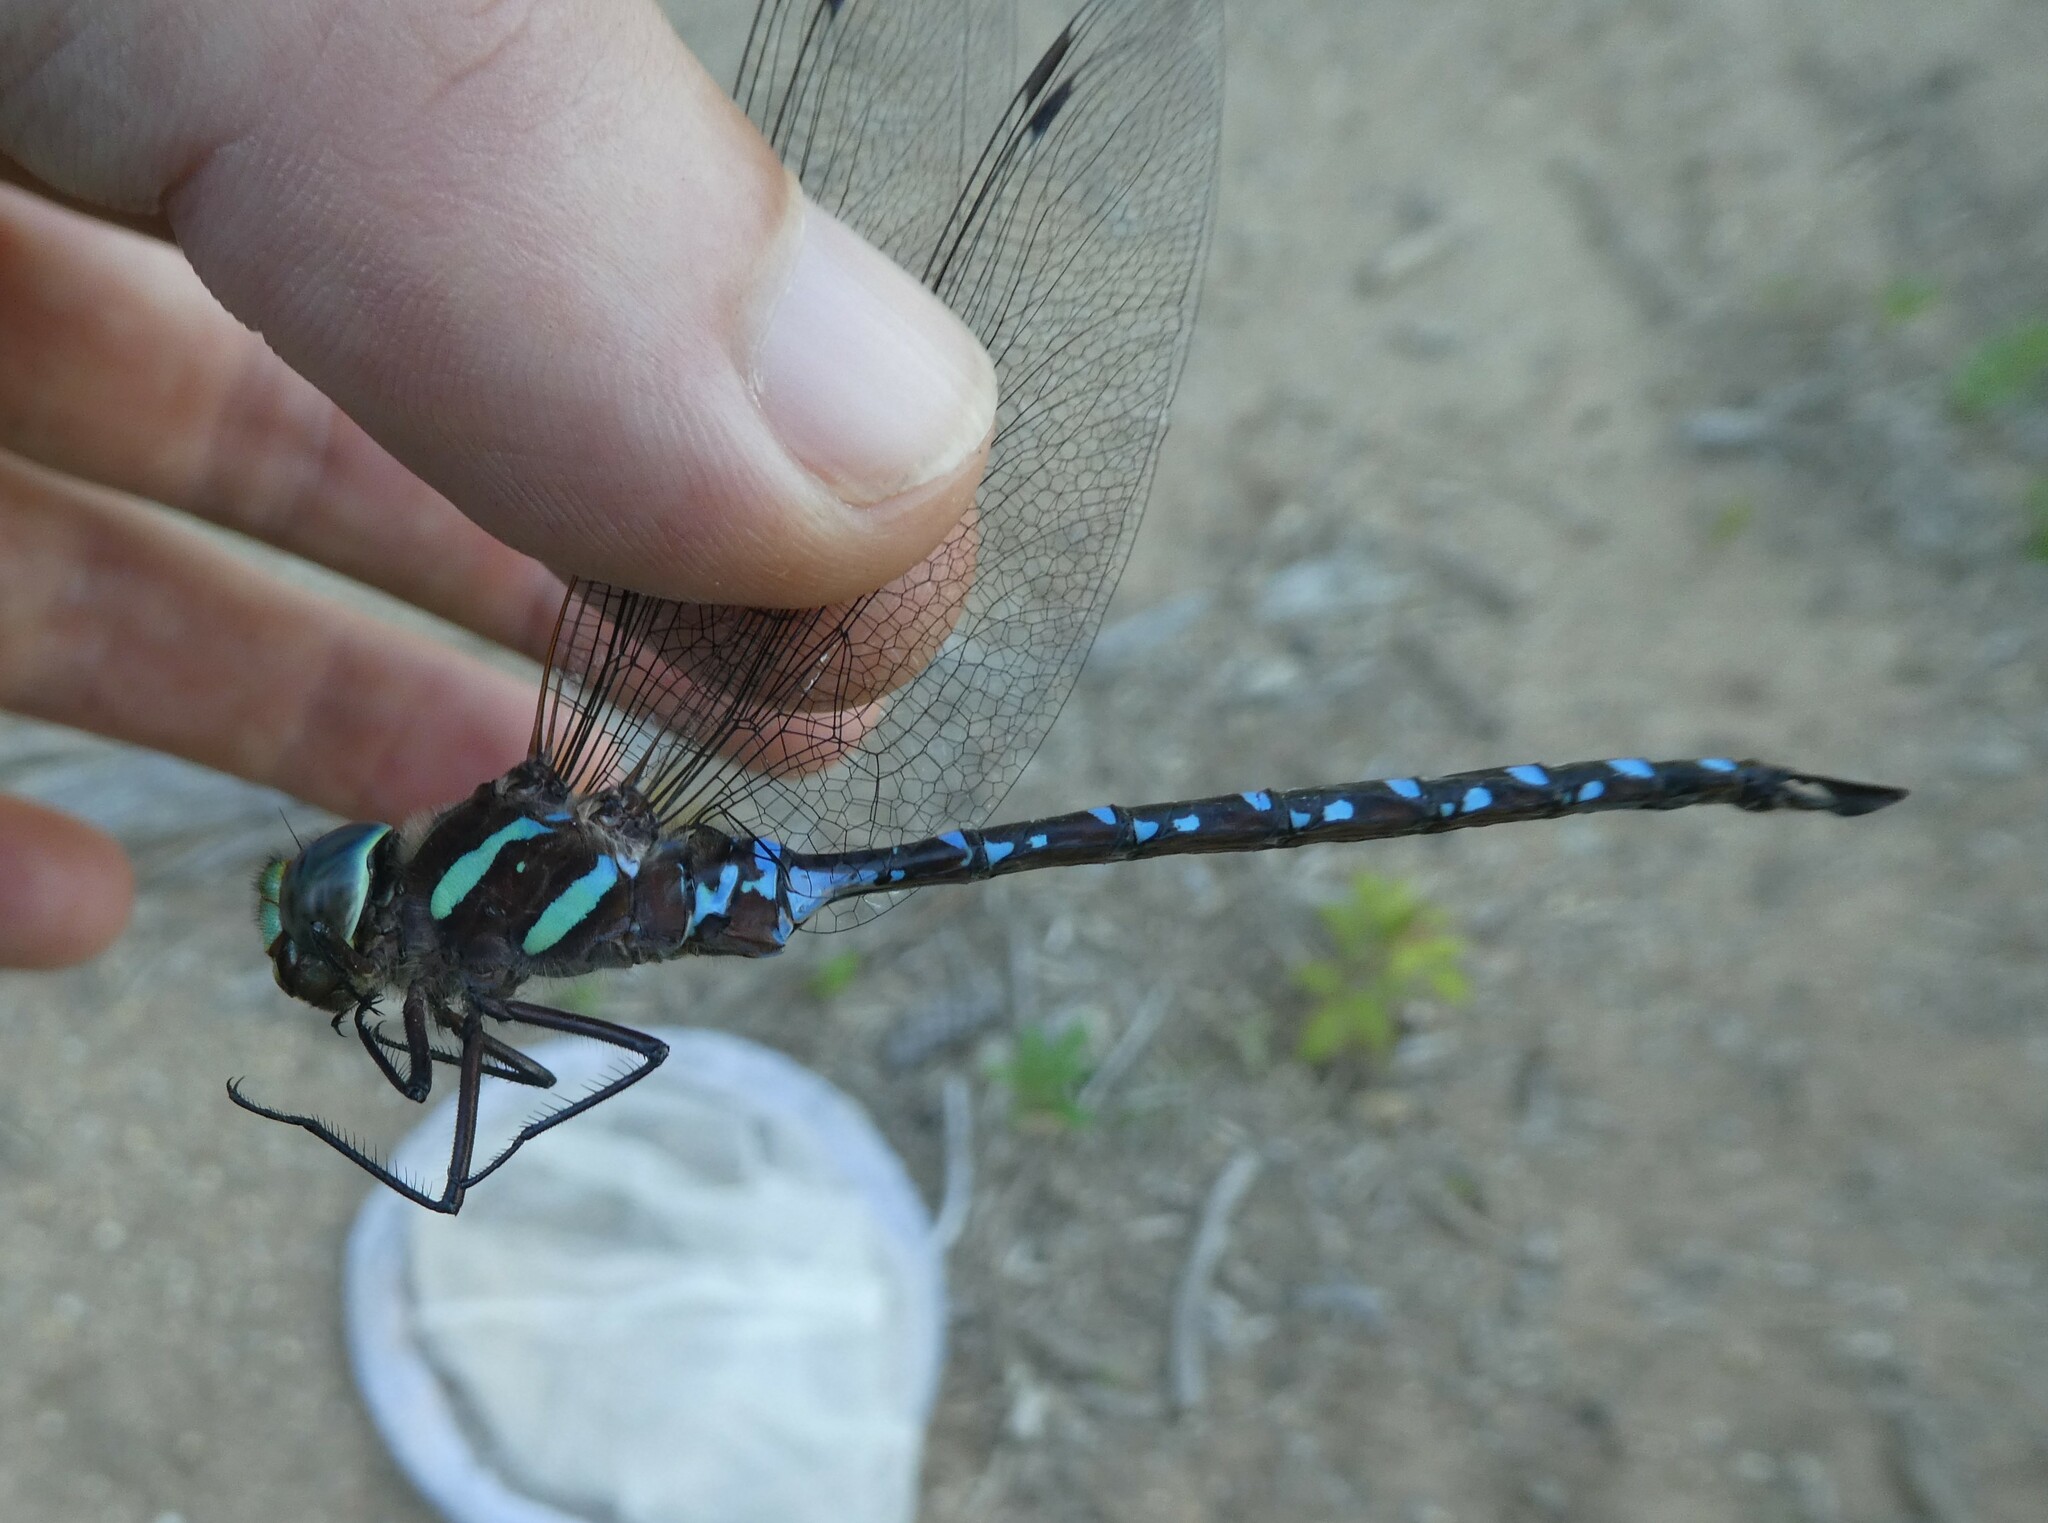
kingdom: Animalia
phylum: Arthropoda
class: Insecta
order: Odonata
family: Aeshnidae
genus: Aeshna
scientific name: Aeshna tuberculifera
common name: Aeschne à tubercules
